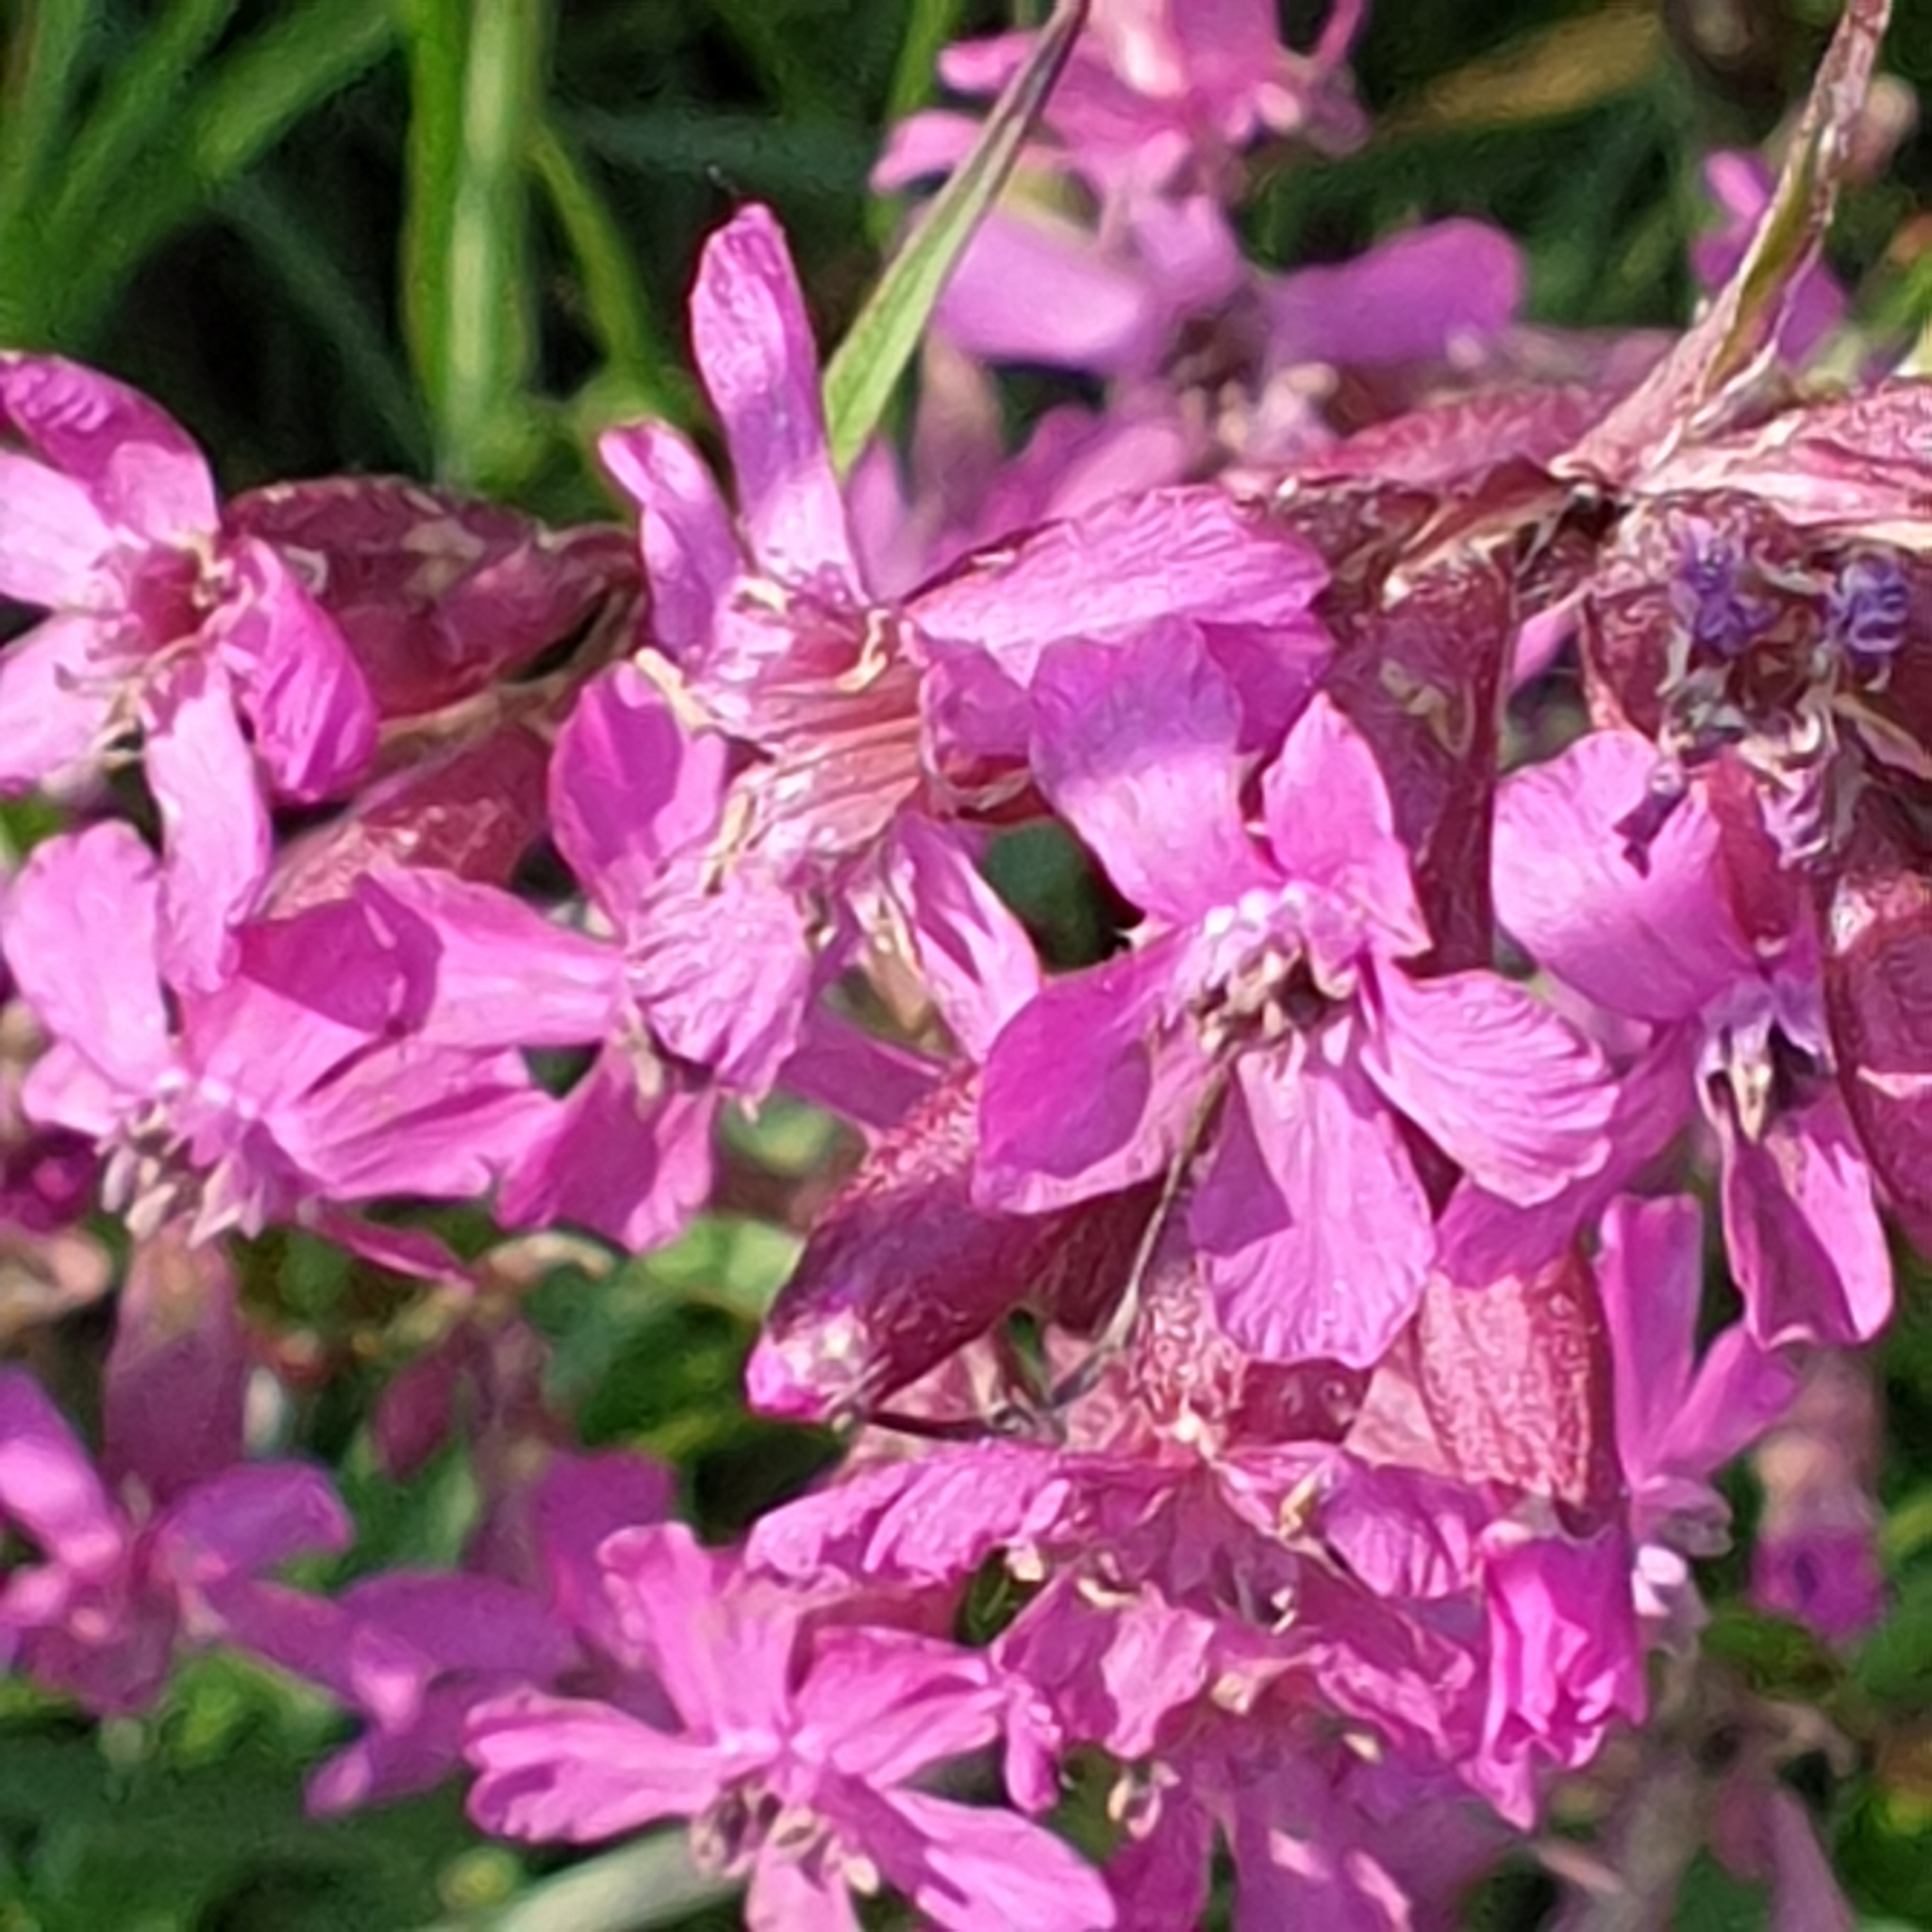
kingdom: Plantae
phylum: Tracheophyta
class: Magnoliopsida
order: Caryophyllales
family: Caryophyllaceae
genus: Viscaria
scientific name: Viscaria vulgaris
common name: Clammy campion
